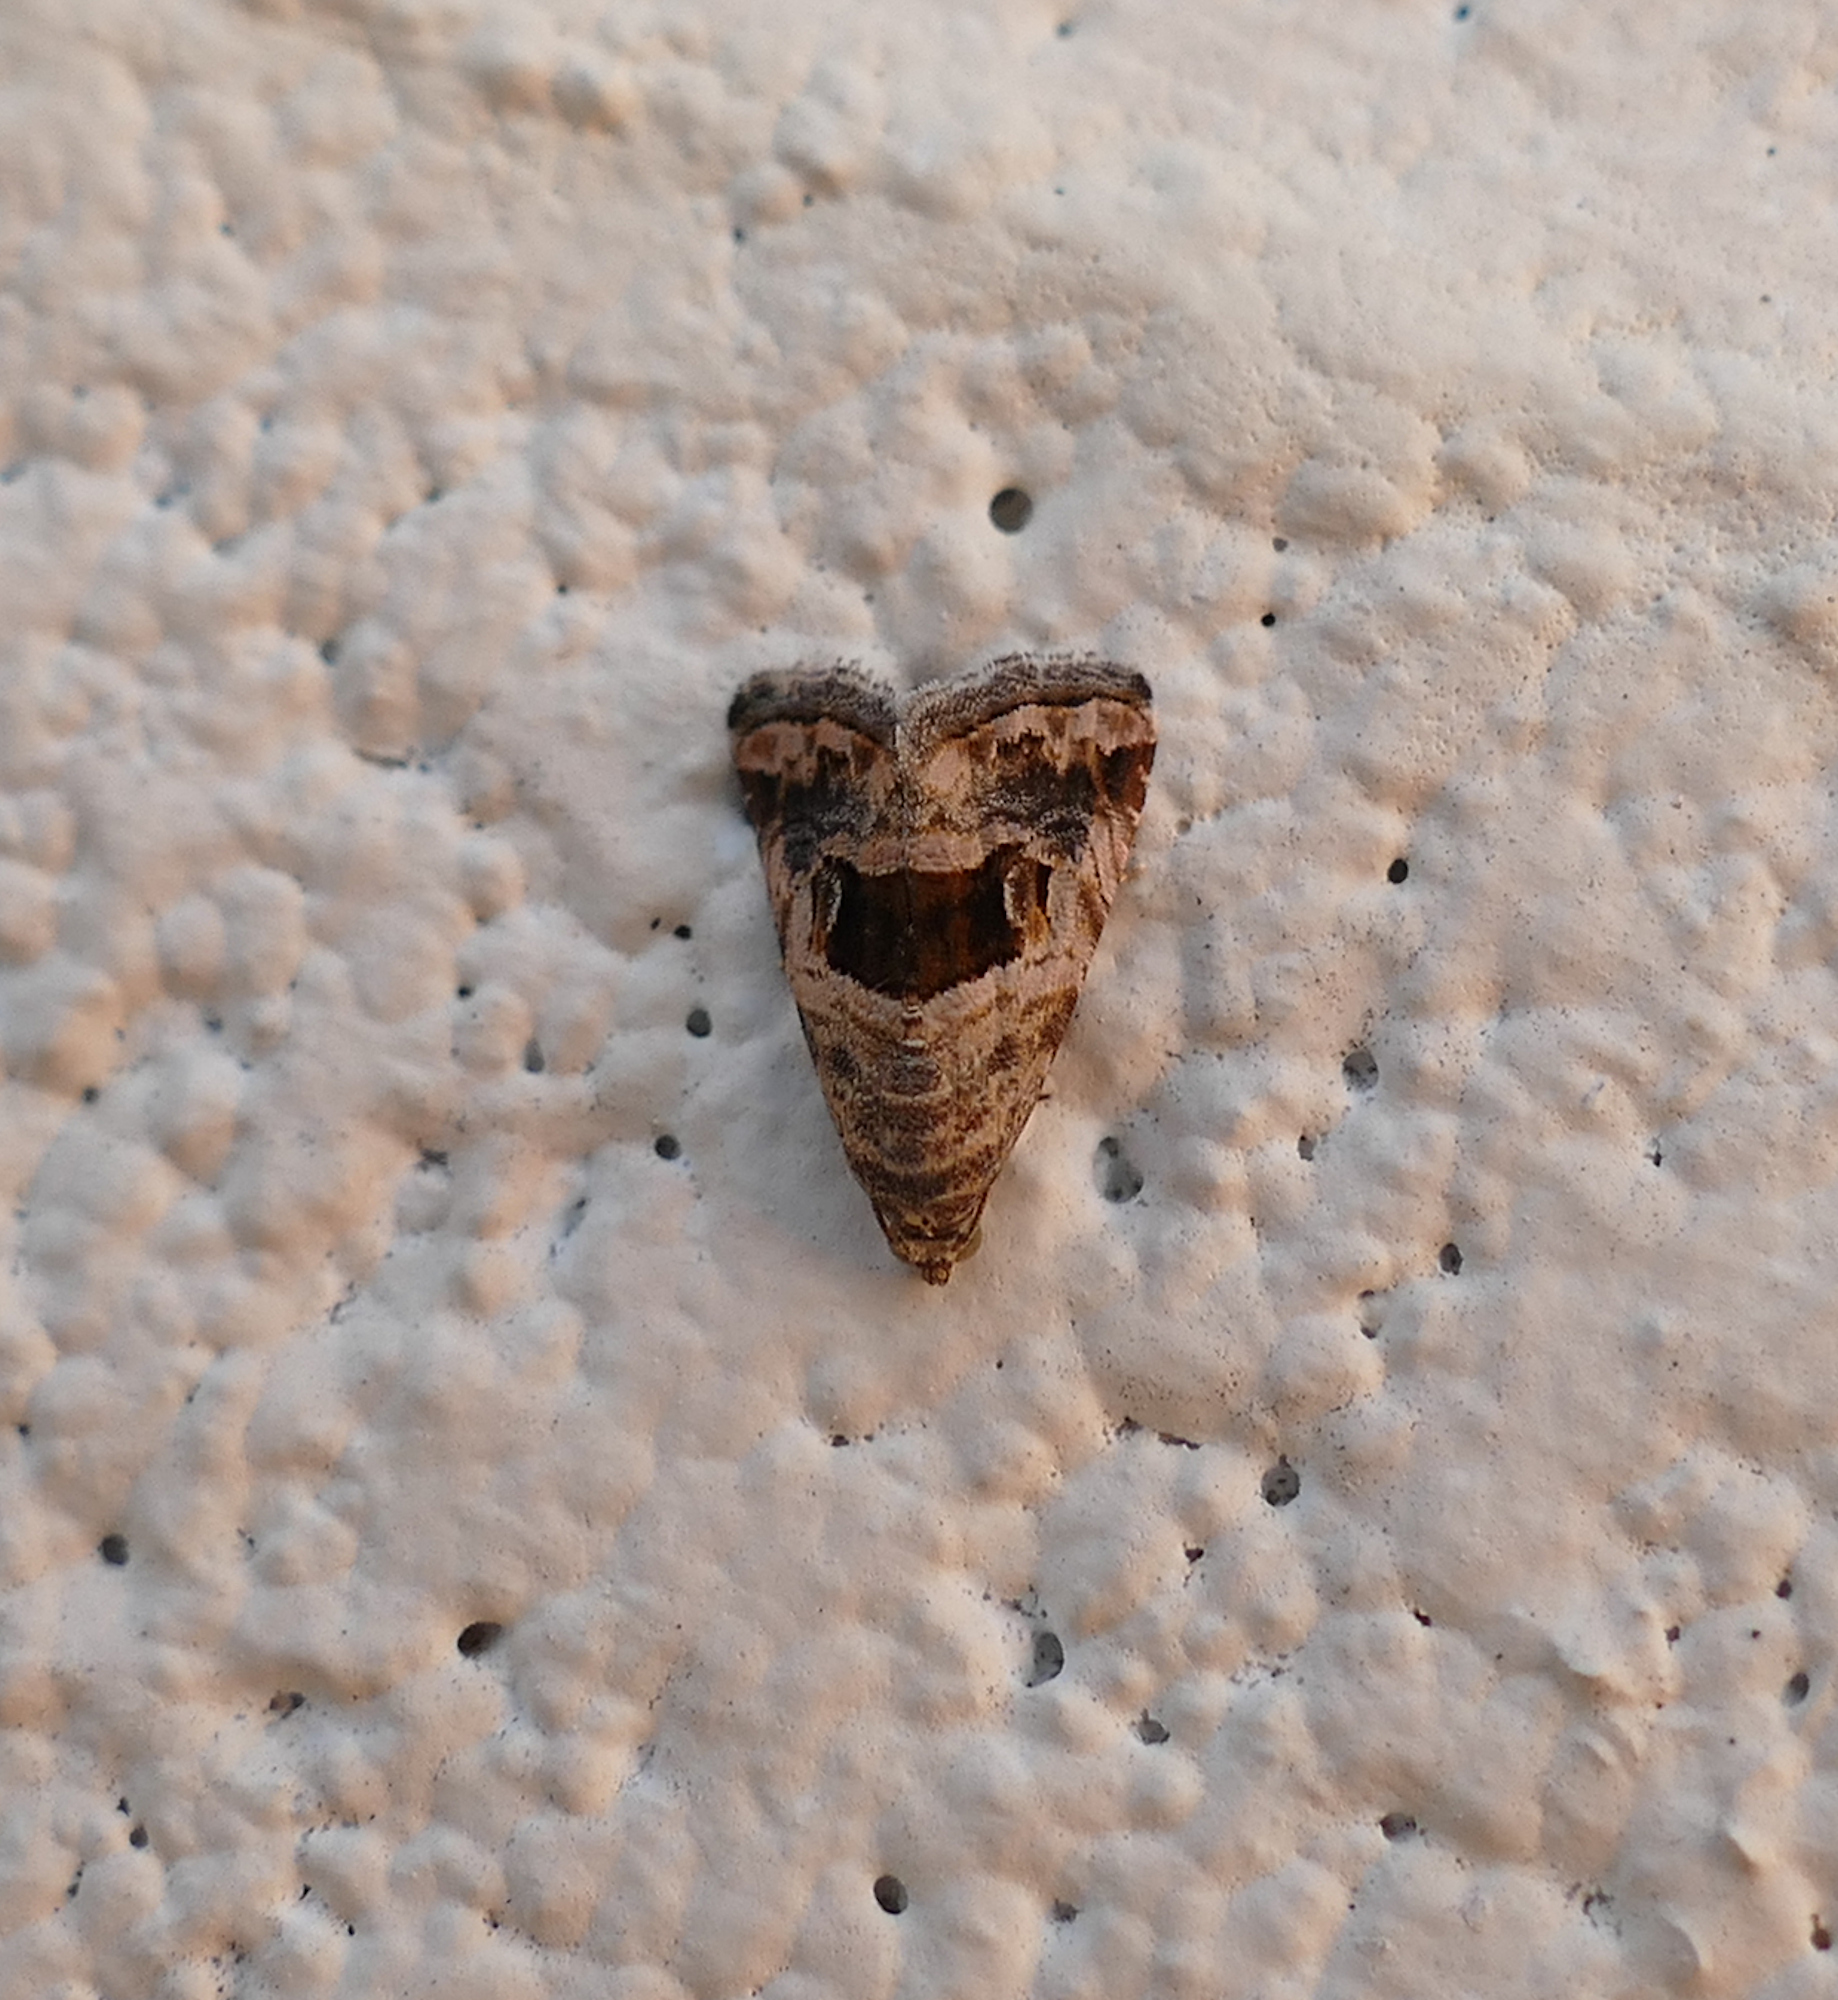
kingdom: Animalia
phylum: Arthropoda
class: Insecta
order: Lepidoptera
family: Noctuidae
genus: Tripudia
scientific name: Tripudia quadrifera
